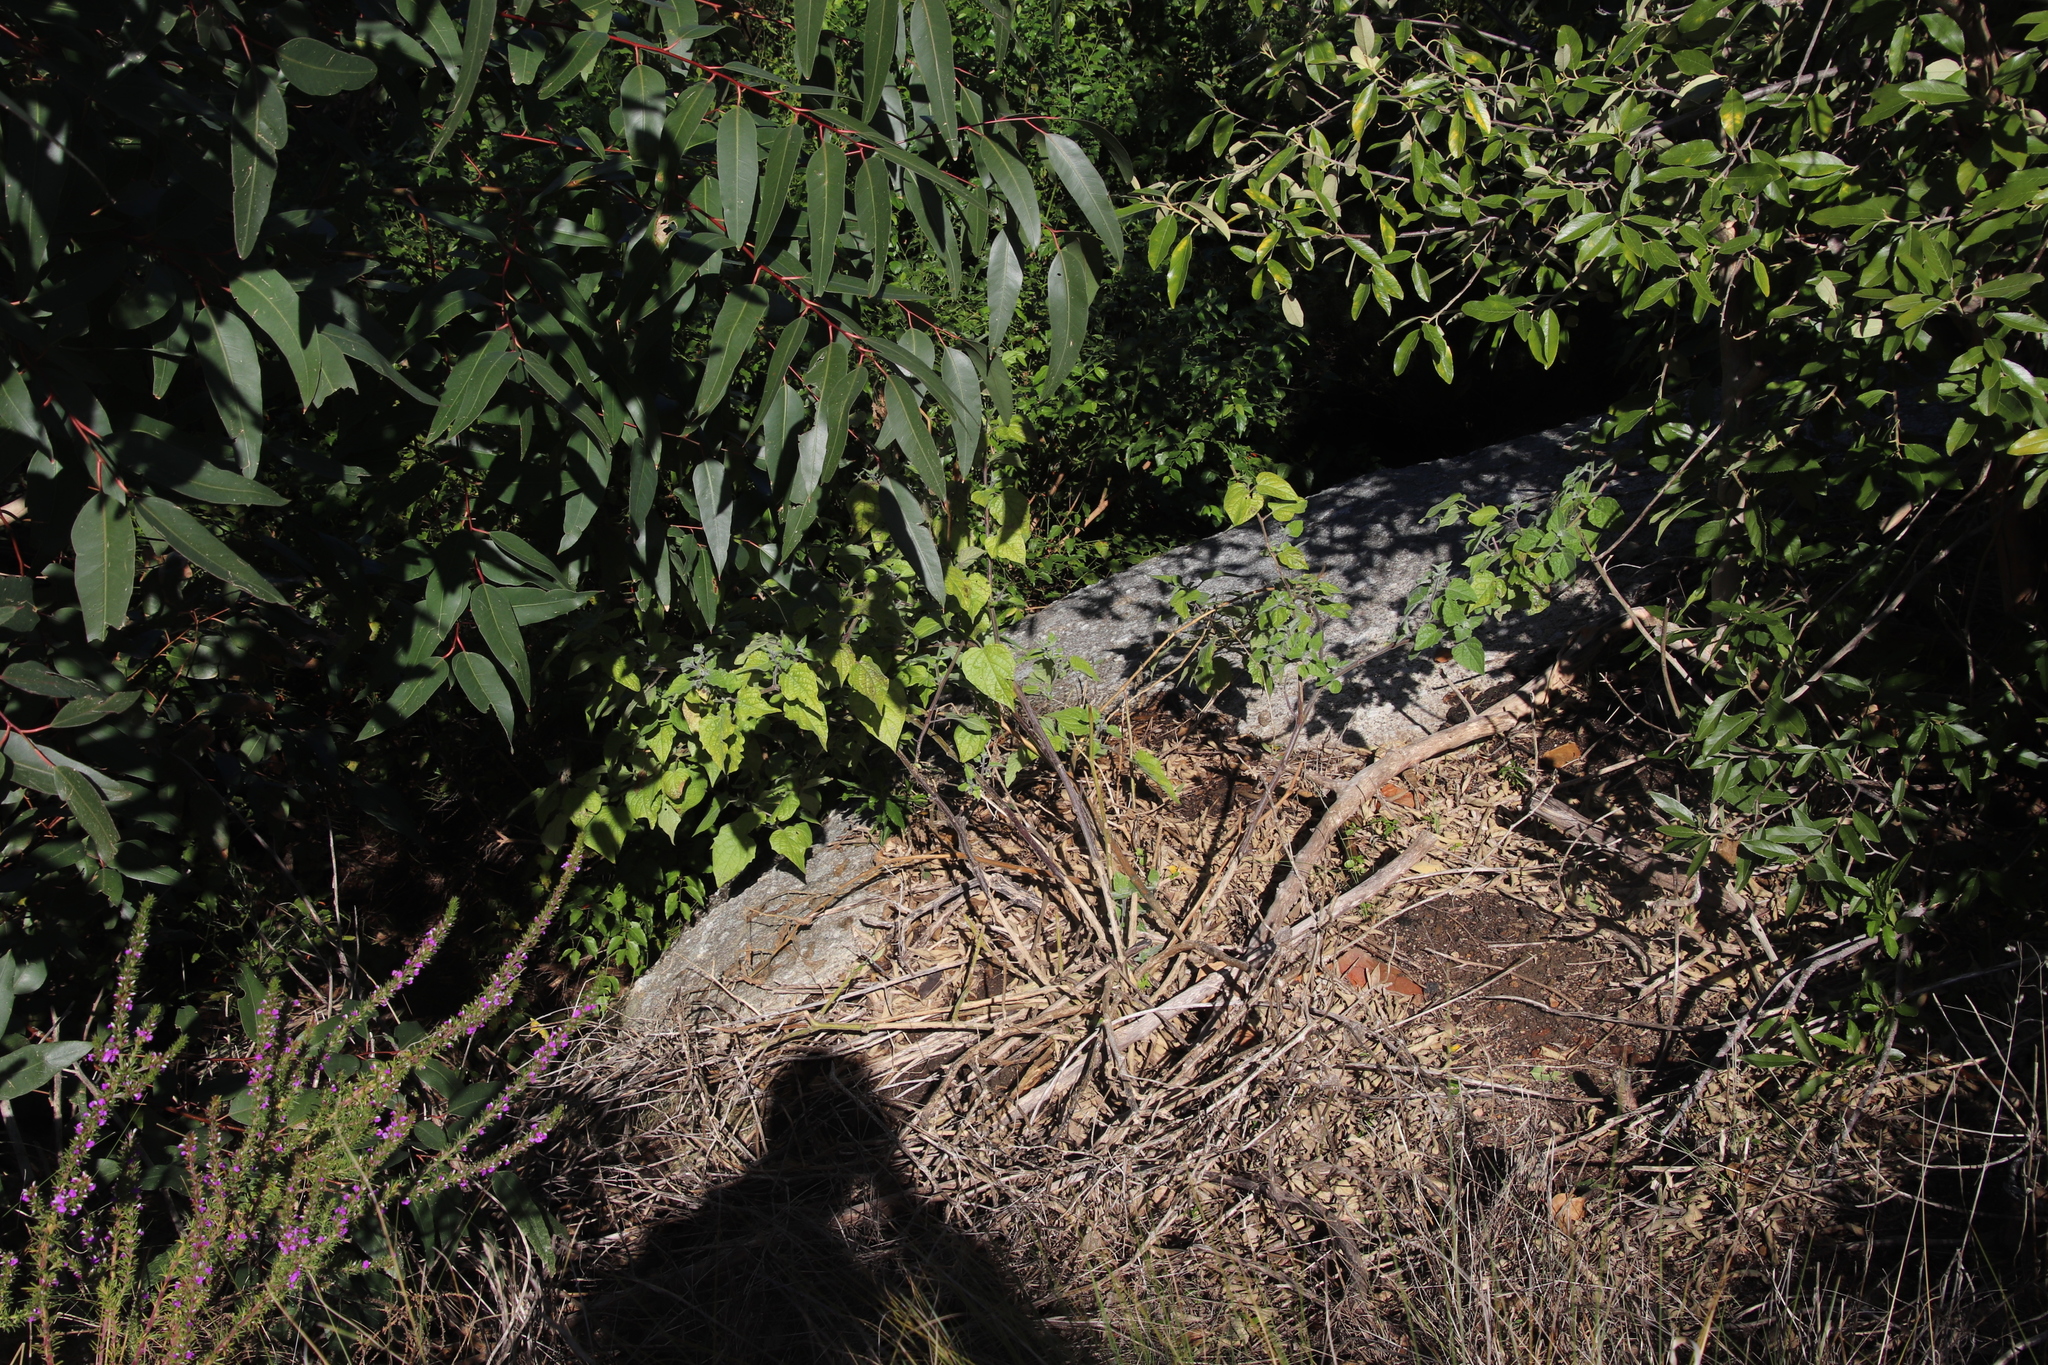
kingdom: Plantae
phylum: Tracheophyta
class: Magnoliopsida
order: Solanales
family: Solanaceae
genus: Physalis
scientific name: Physalis peruviana
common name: Cape-gooseberry
